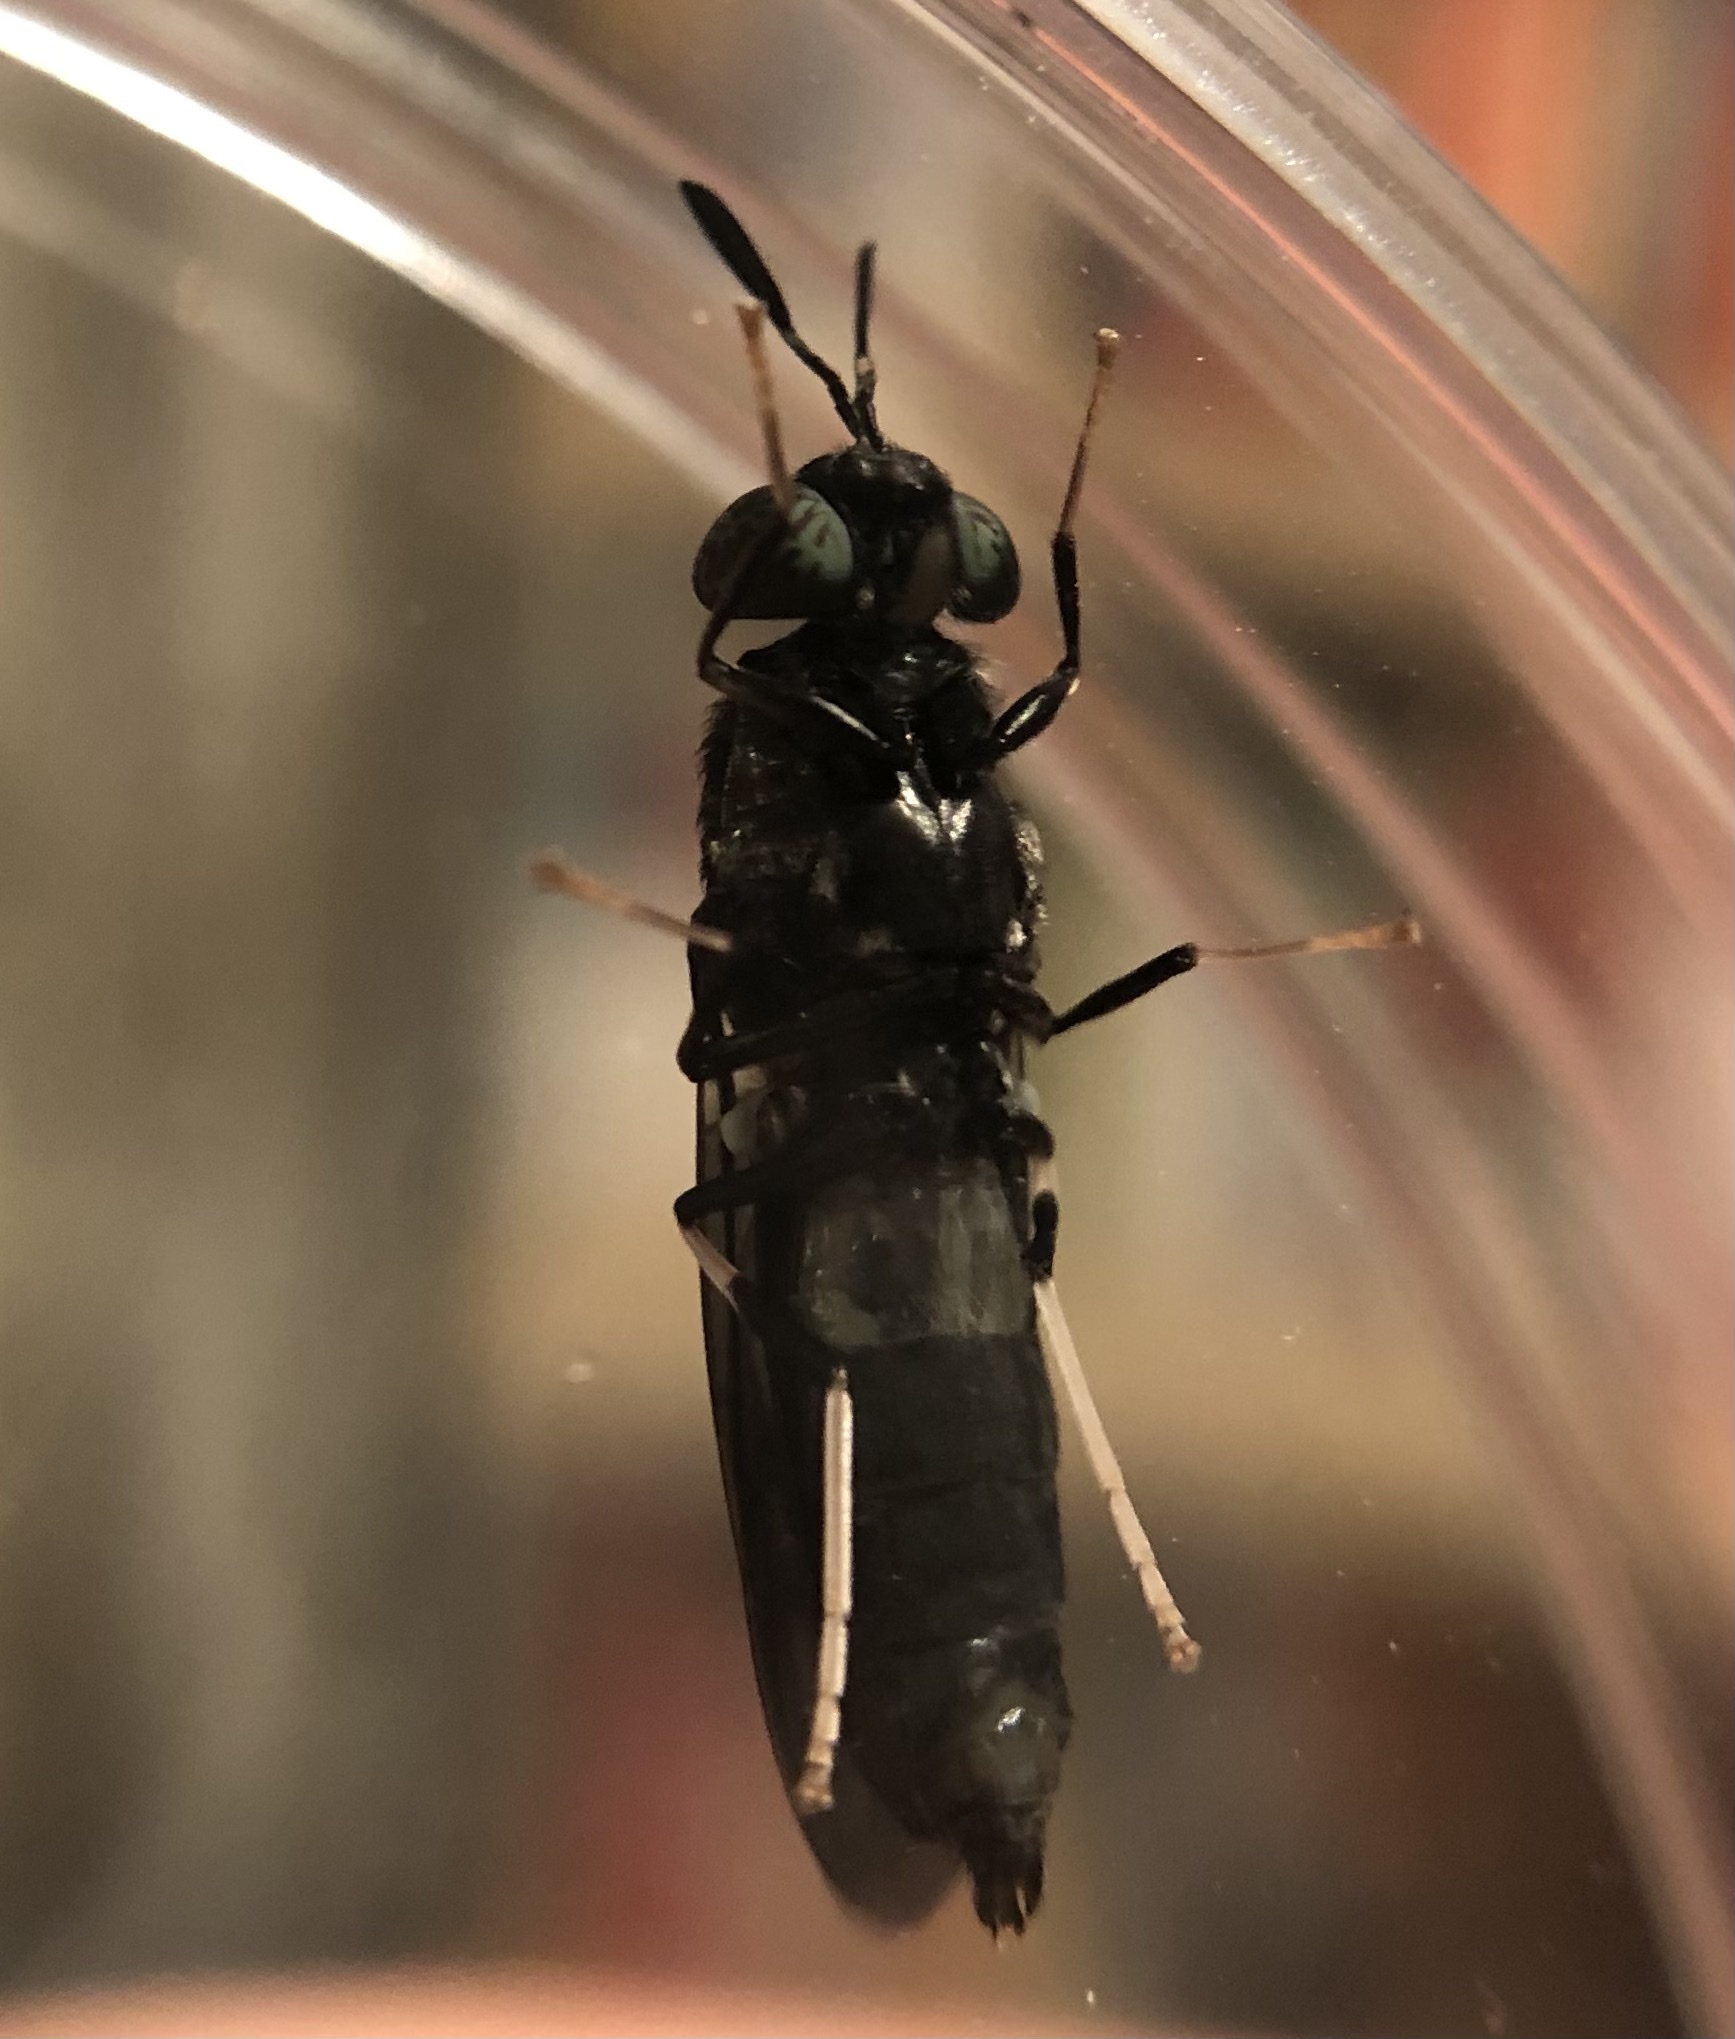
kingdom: Animalia
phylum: Arthropoda
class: Insecta
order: Diptera
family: Stratiomyidae
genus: Hermetia
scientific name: Hermetia illucens
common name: Black soldier fly
